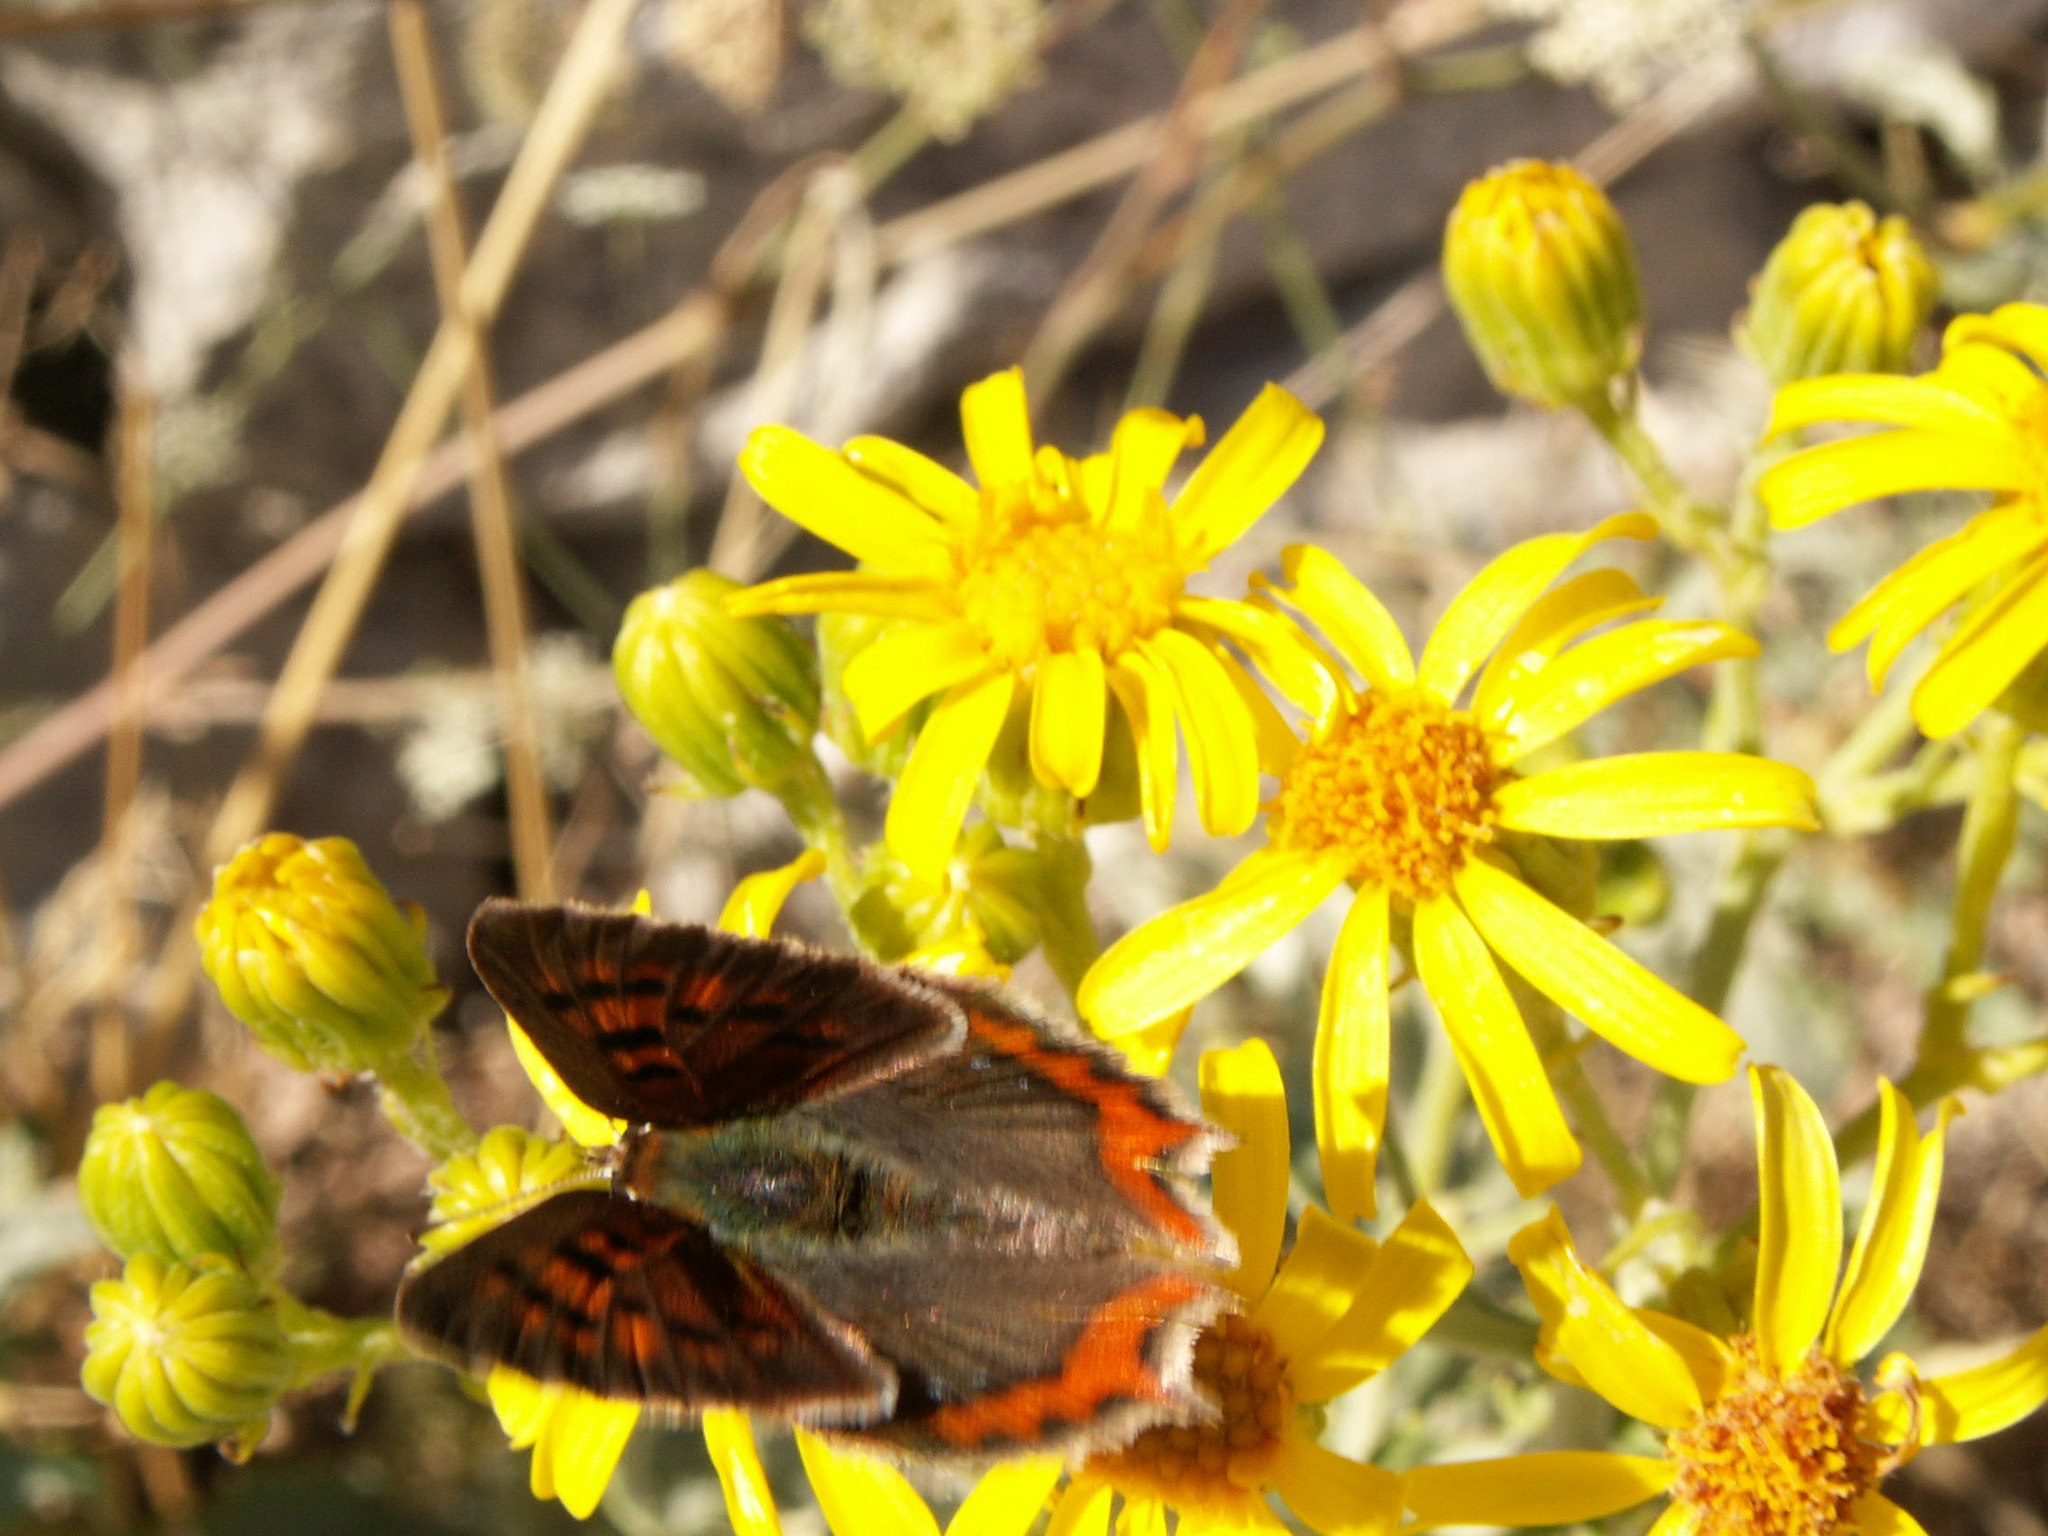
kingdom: Animalia
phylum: Arthropoda
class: Insecta
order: Lepidoptera
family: Lycaenidae
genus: Lycaena
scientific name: Lycaena phlaeas
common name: Small copper
